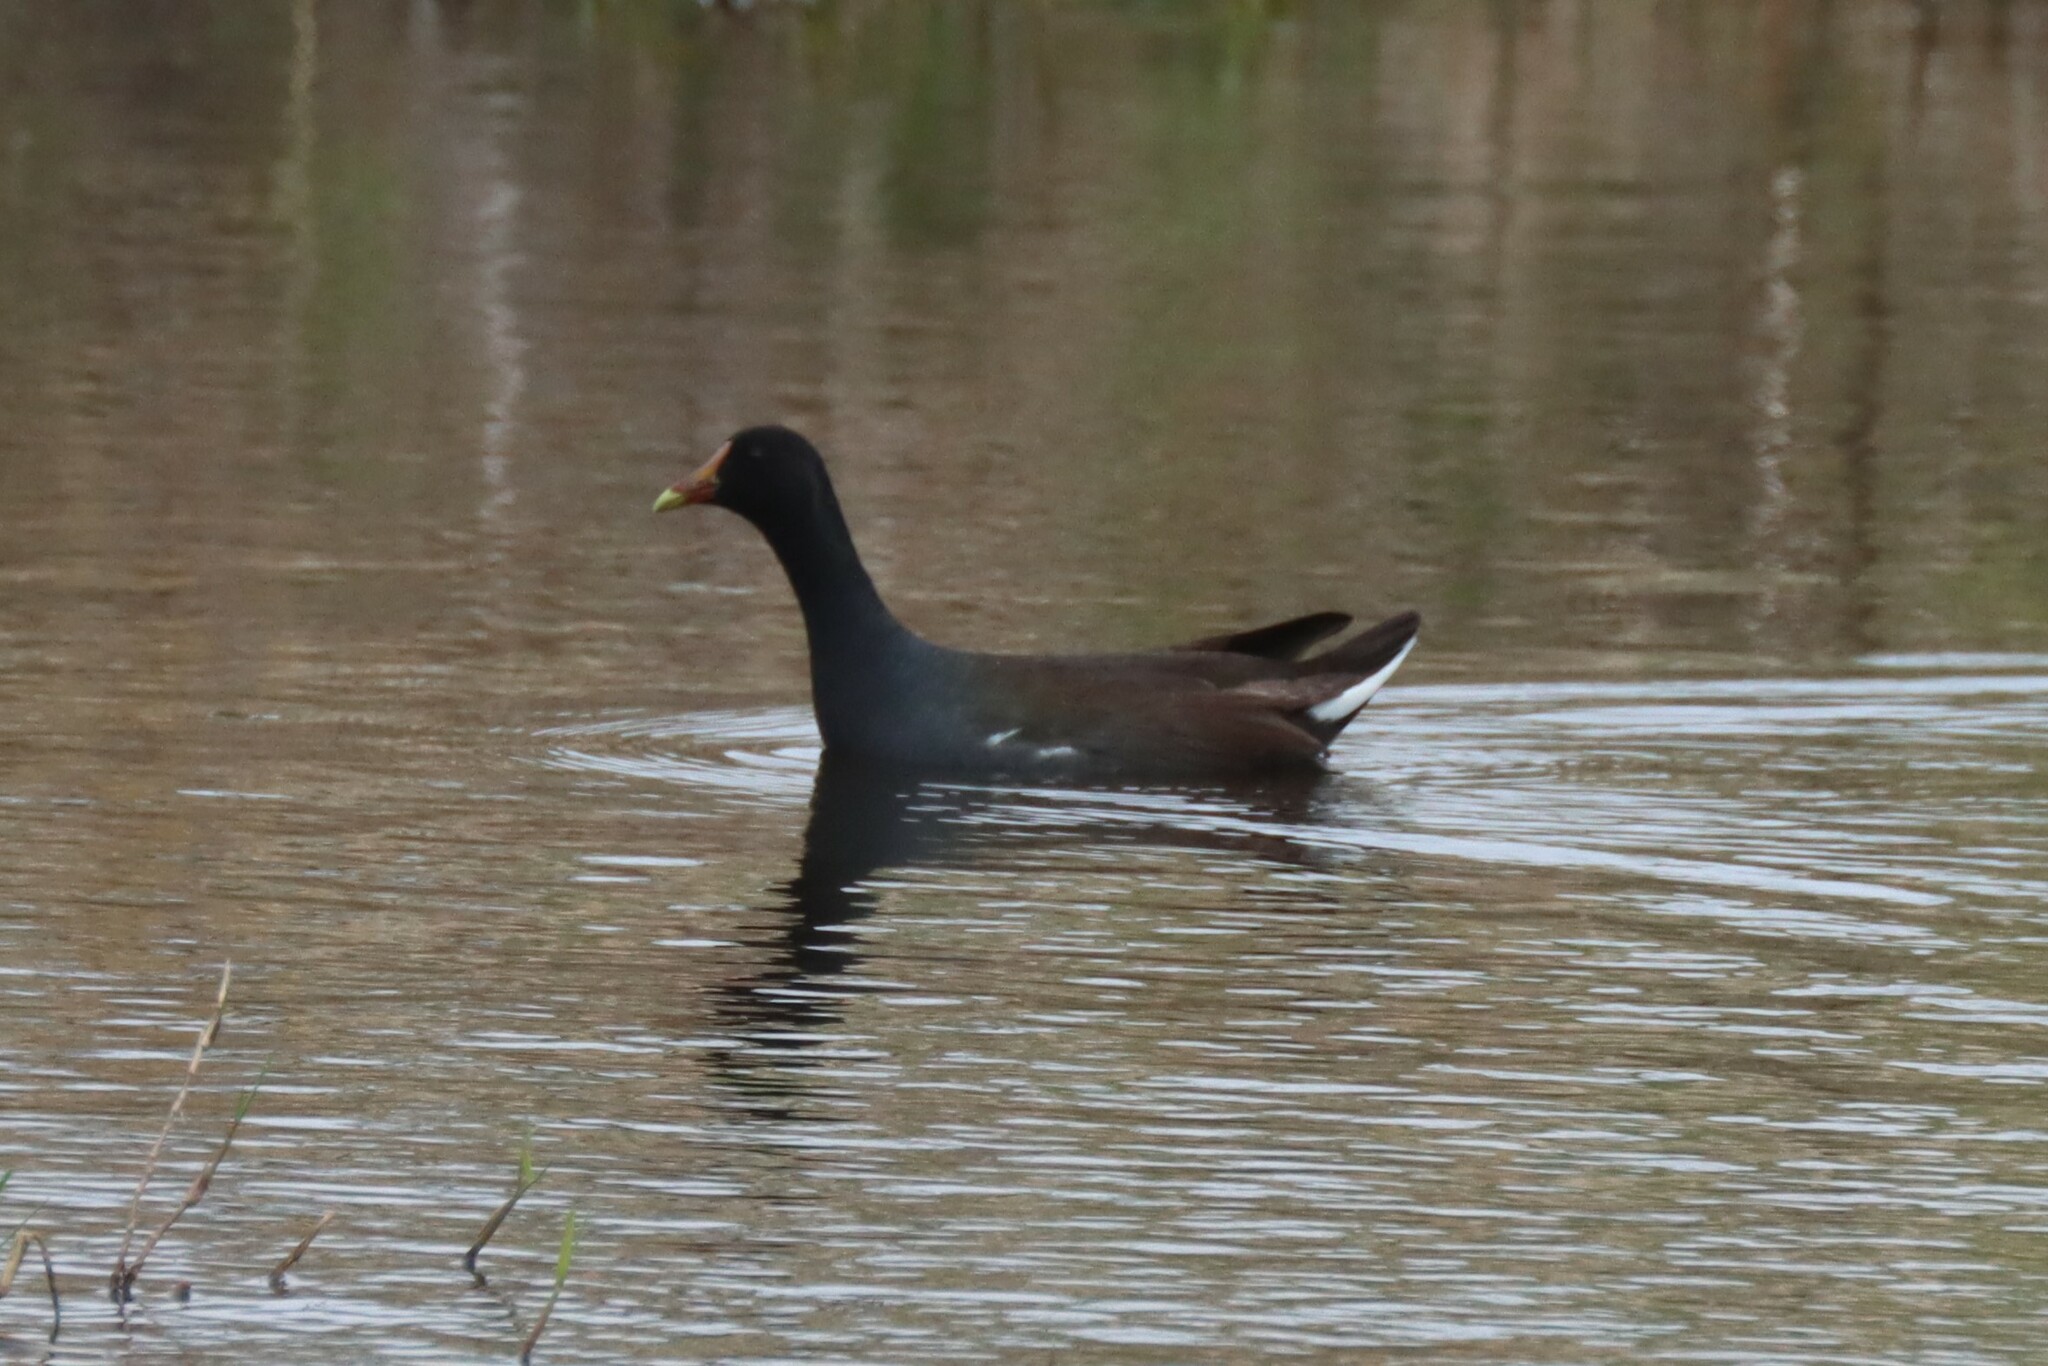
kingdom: Animalia
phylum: Chordata
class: Aves
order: Gruiformes
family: Rallidae
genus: Gallinula
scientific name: Gallinula chloropus
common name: Common moorhen
